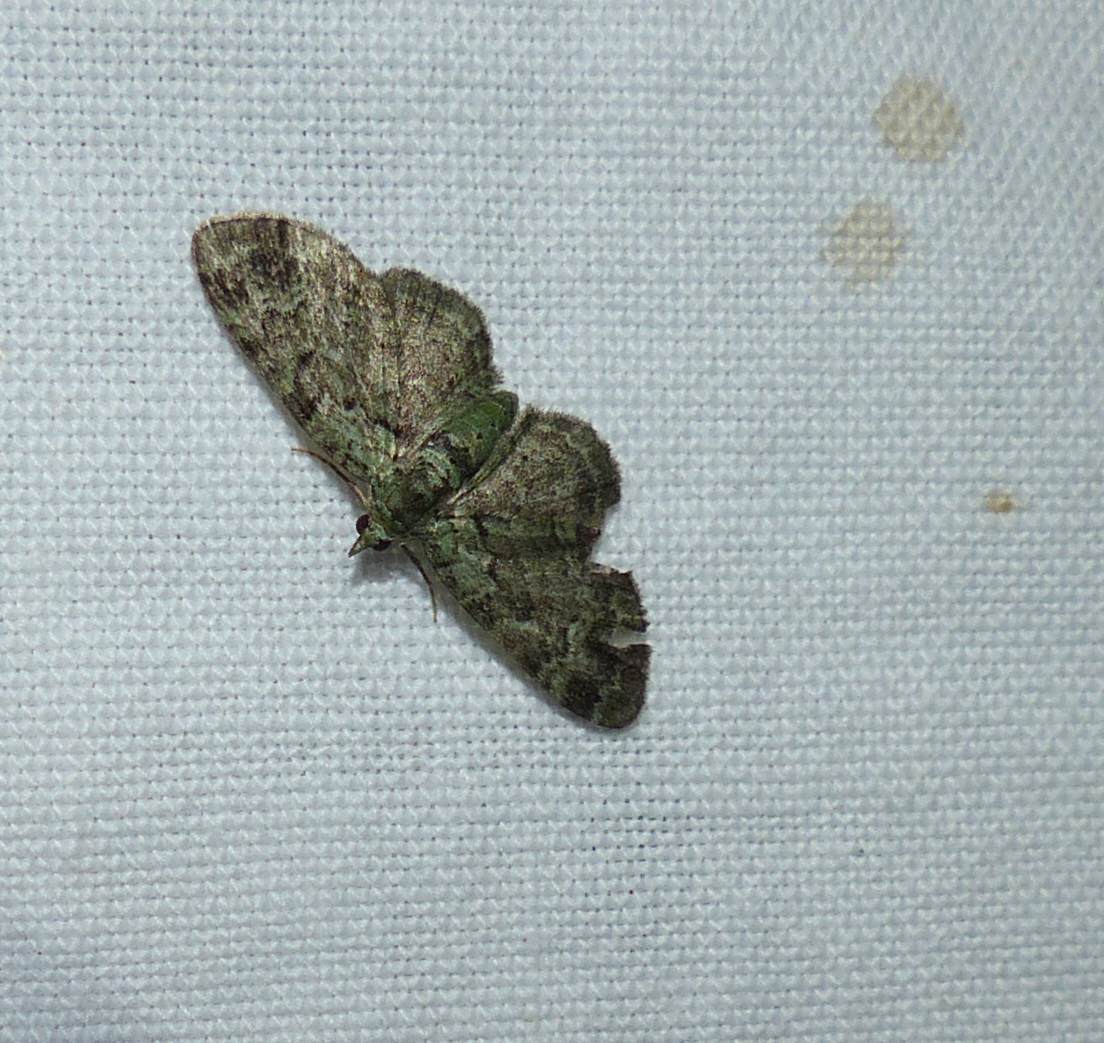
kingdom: Animalia
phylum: Arthropoda
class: Insecta
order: Lepidoptera
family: Geometridae
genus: Pasiphila
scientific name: Pasiphila rectangulata
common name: Green pug
